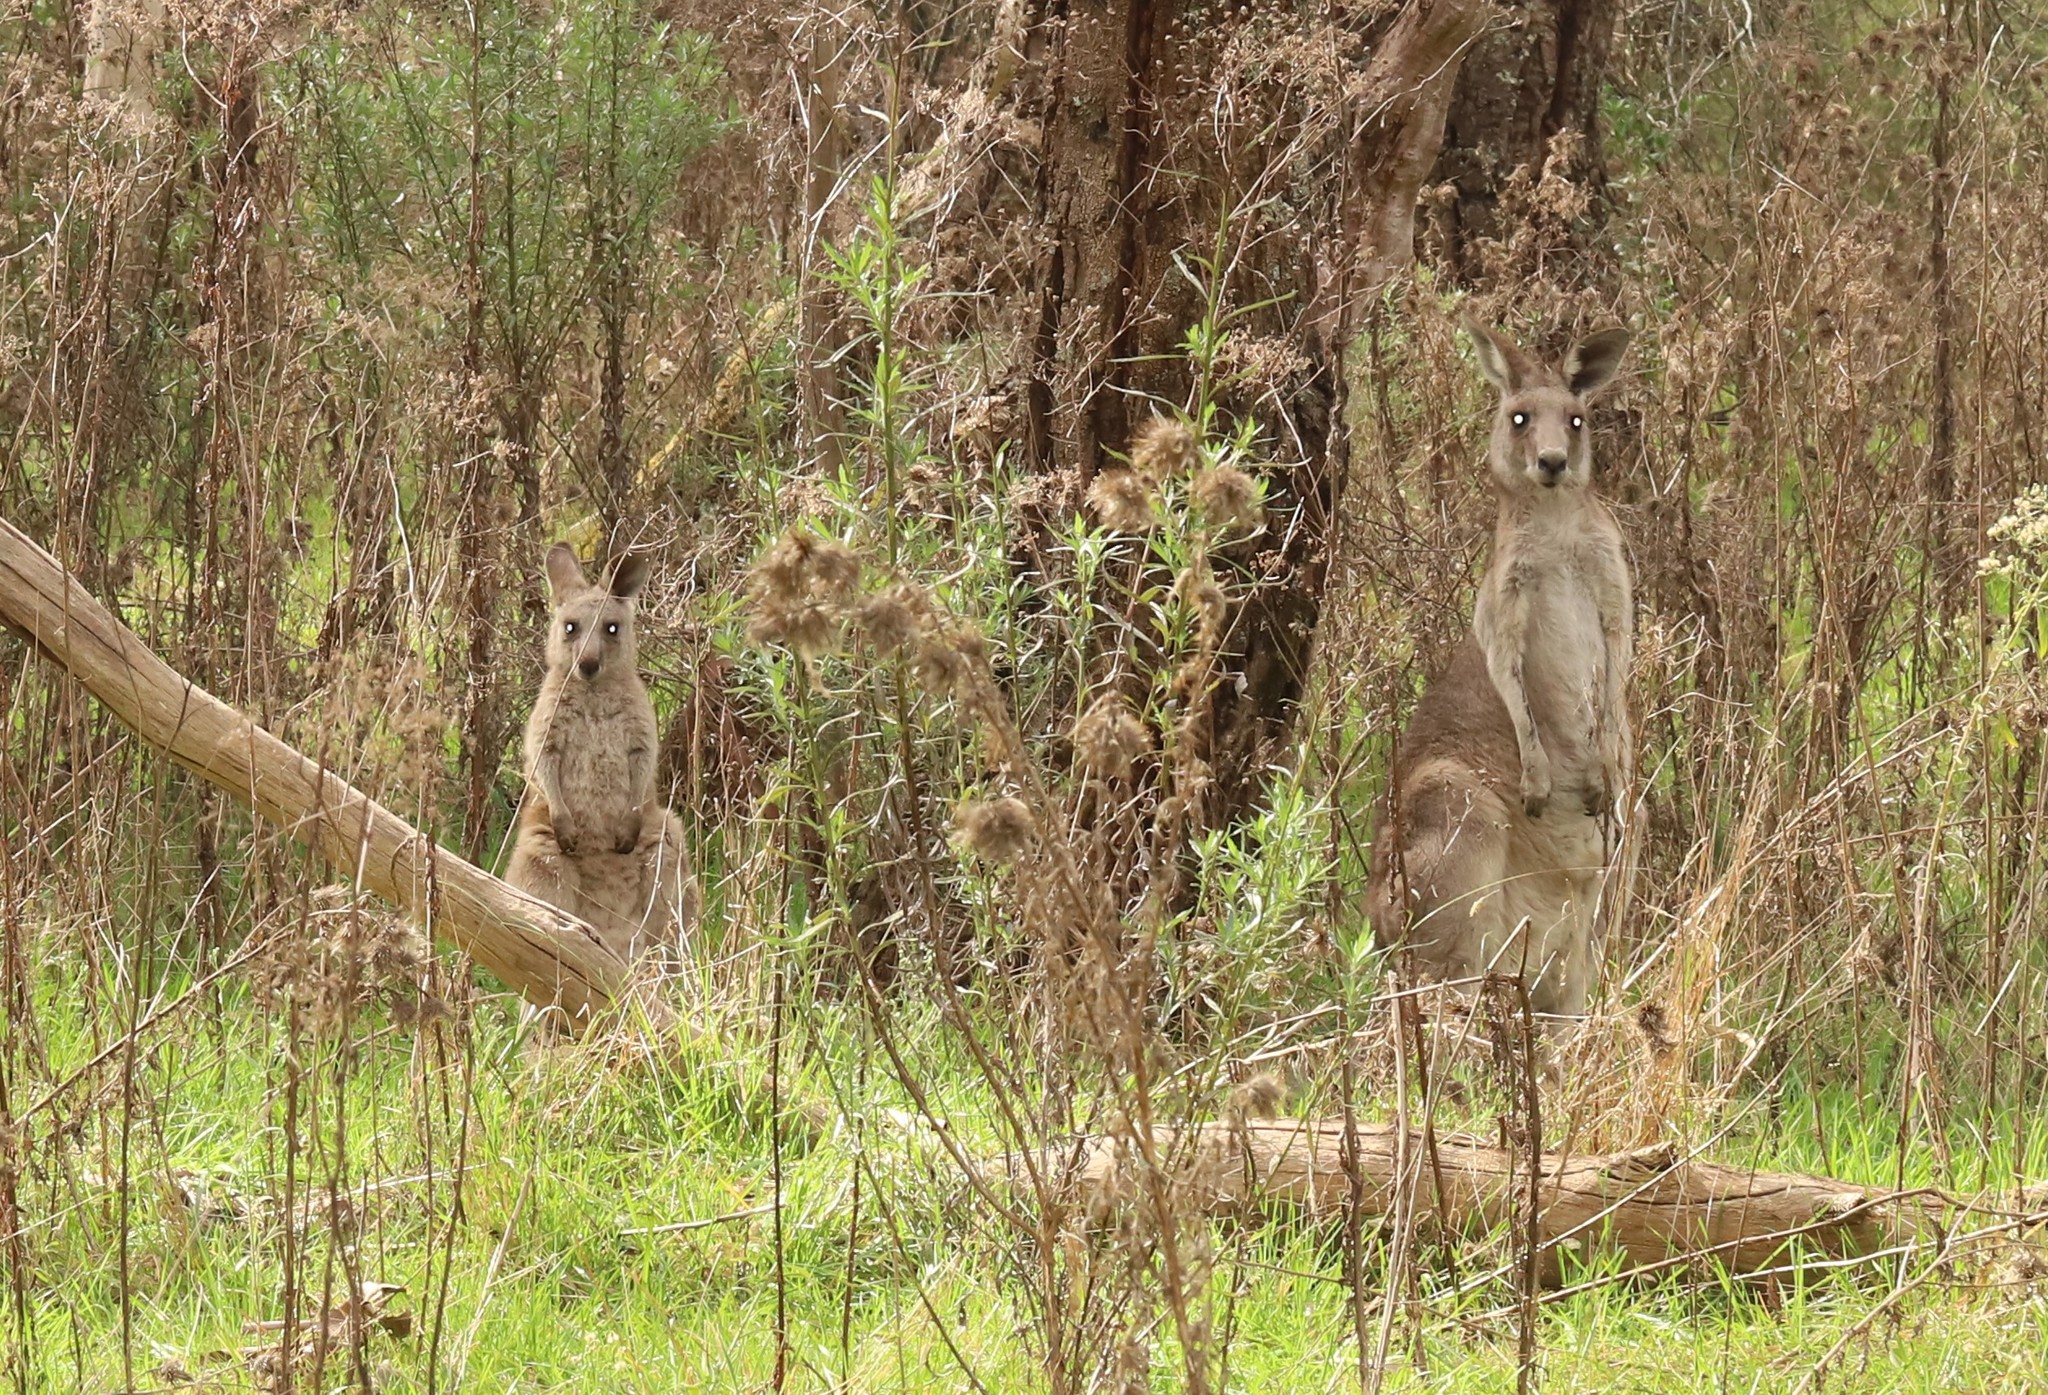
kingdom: Animalia
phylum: Chordata
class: Mammalia
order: Diprotodontia
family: Macropodidae
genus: Macropus
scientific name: Macropus giganteus
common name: Eastern grey kangaroo
